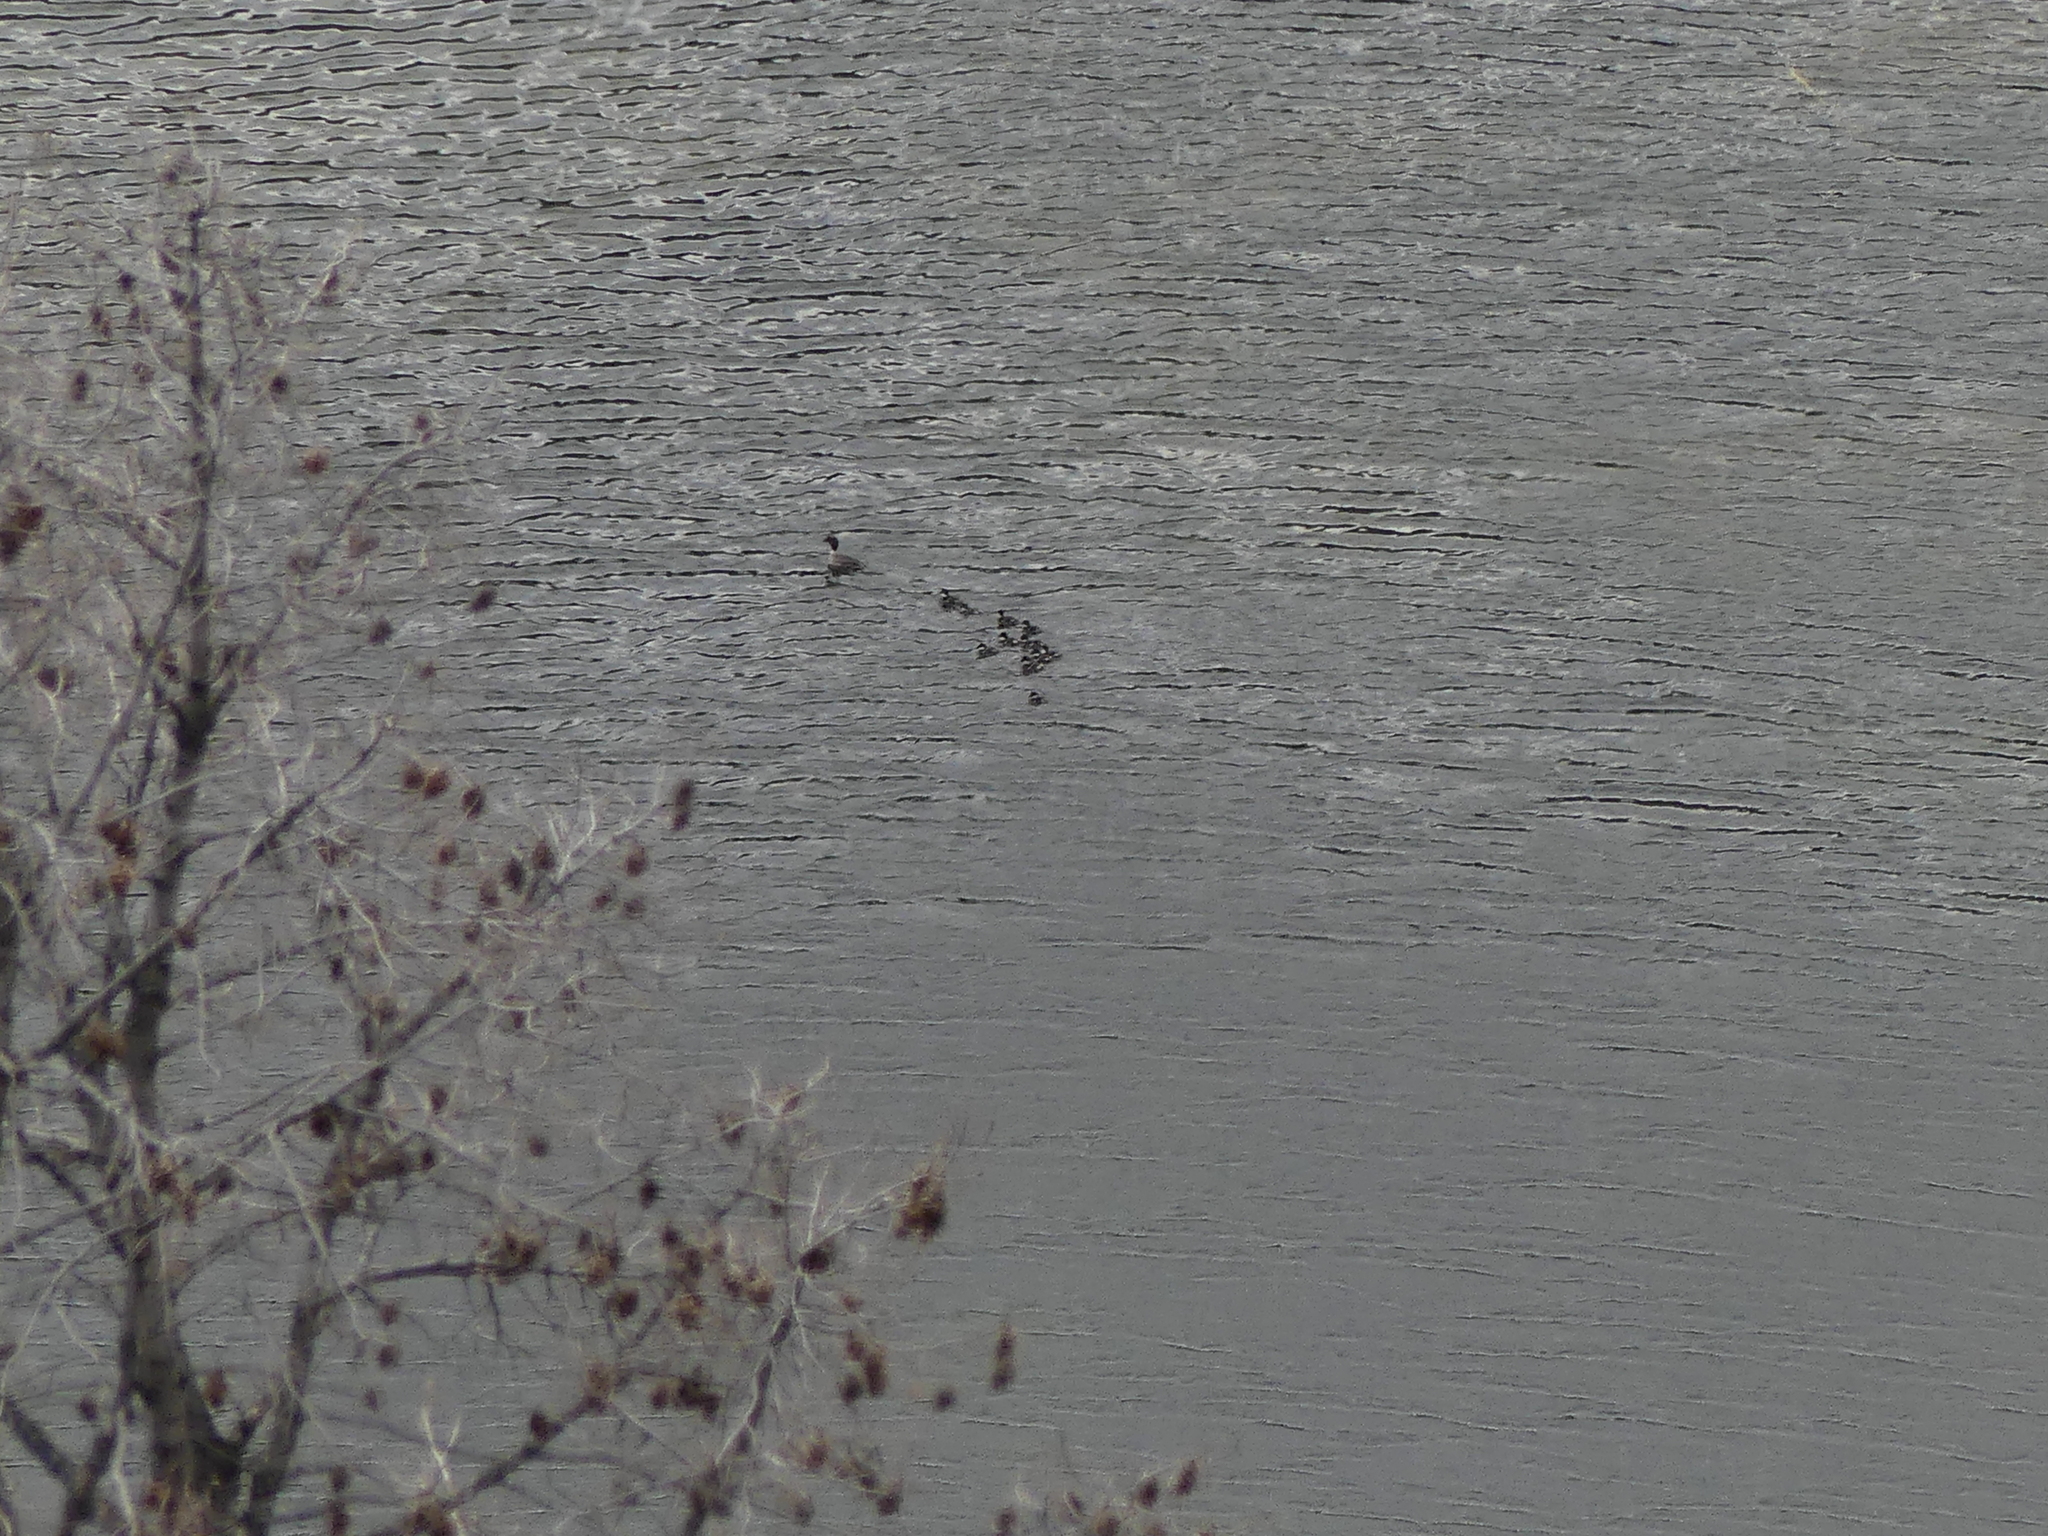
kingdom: Animalia
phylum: Chordata
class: Aves
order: Anseriformes
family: Anatidae
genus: Bucephala
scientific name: Bucephala islandica
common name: Barrow's goldeneye
